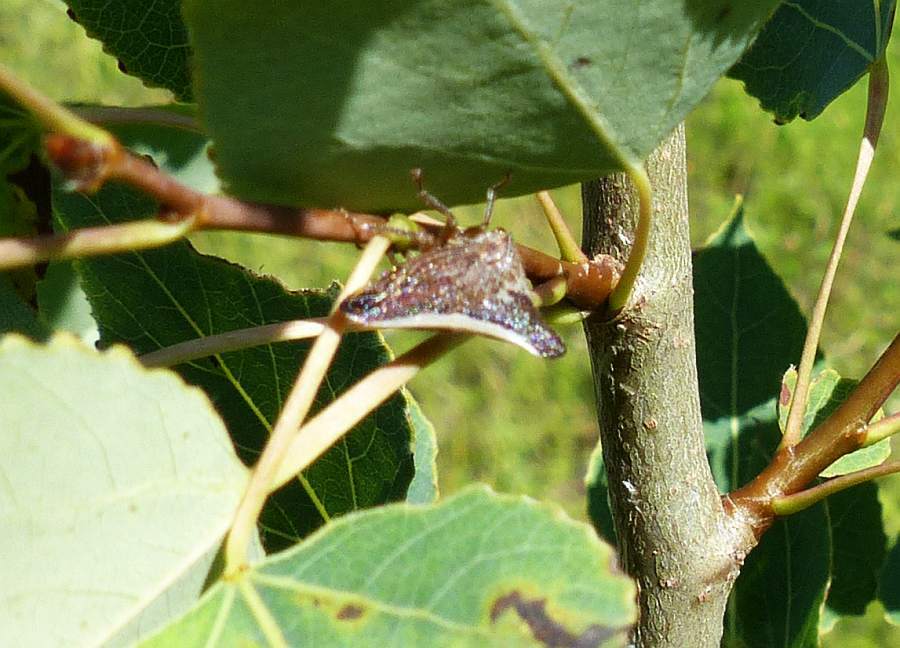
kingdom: Animalia
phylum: Arthropoda
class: Insecta
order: Hemiptera
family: Membracidae
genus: Glossonotus
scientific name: Glossonotus univittatus
